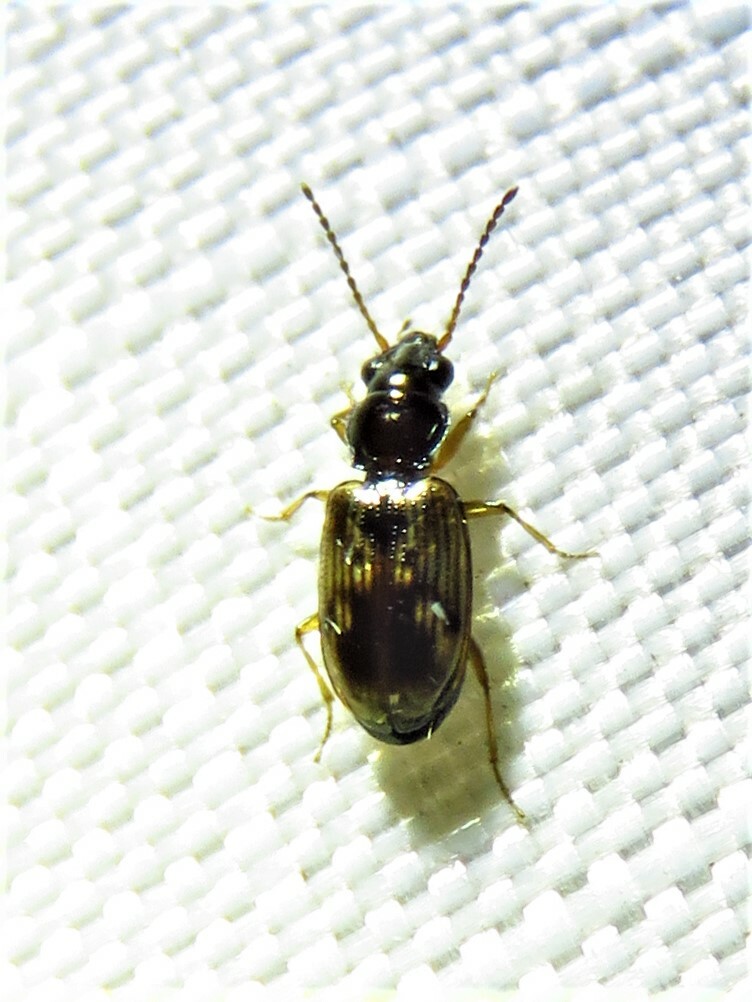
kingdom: Animalia
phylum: Arthropoda
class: Insecta
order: Coleoptera
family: Carabidae
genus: Bembidion
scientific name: Bembidion impotens
